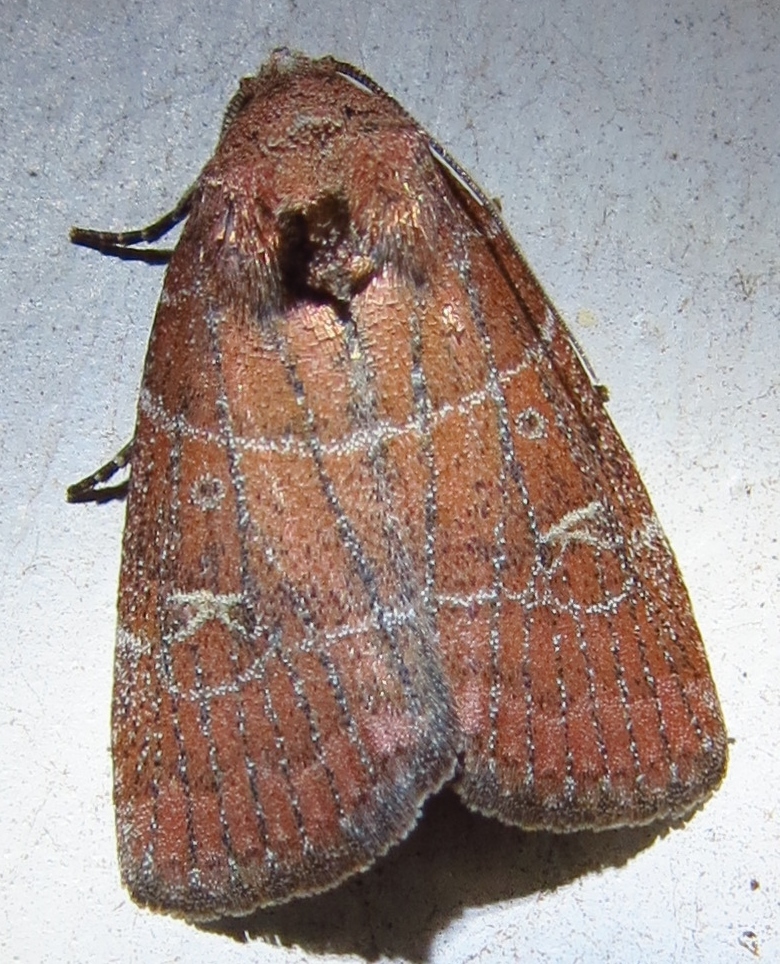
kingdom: Animalia
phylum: Arthropoda
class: Insecta
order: Lepidoptera
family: Noctuidae
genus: Elaphria
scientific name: Elaphria grata
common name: Grateful midget moth
